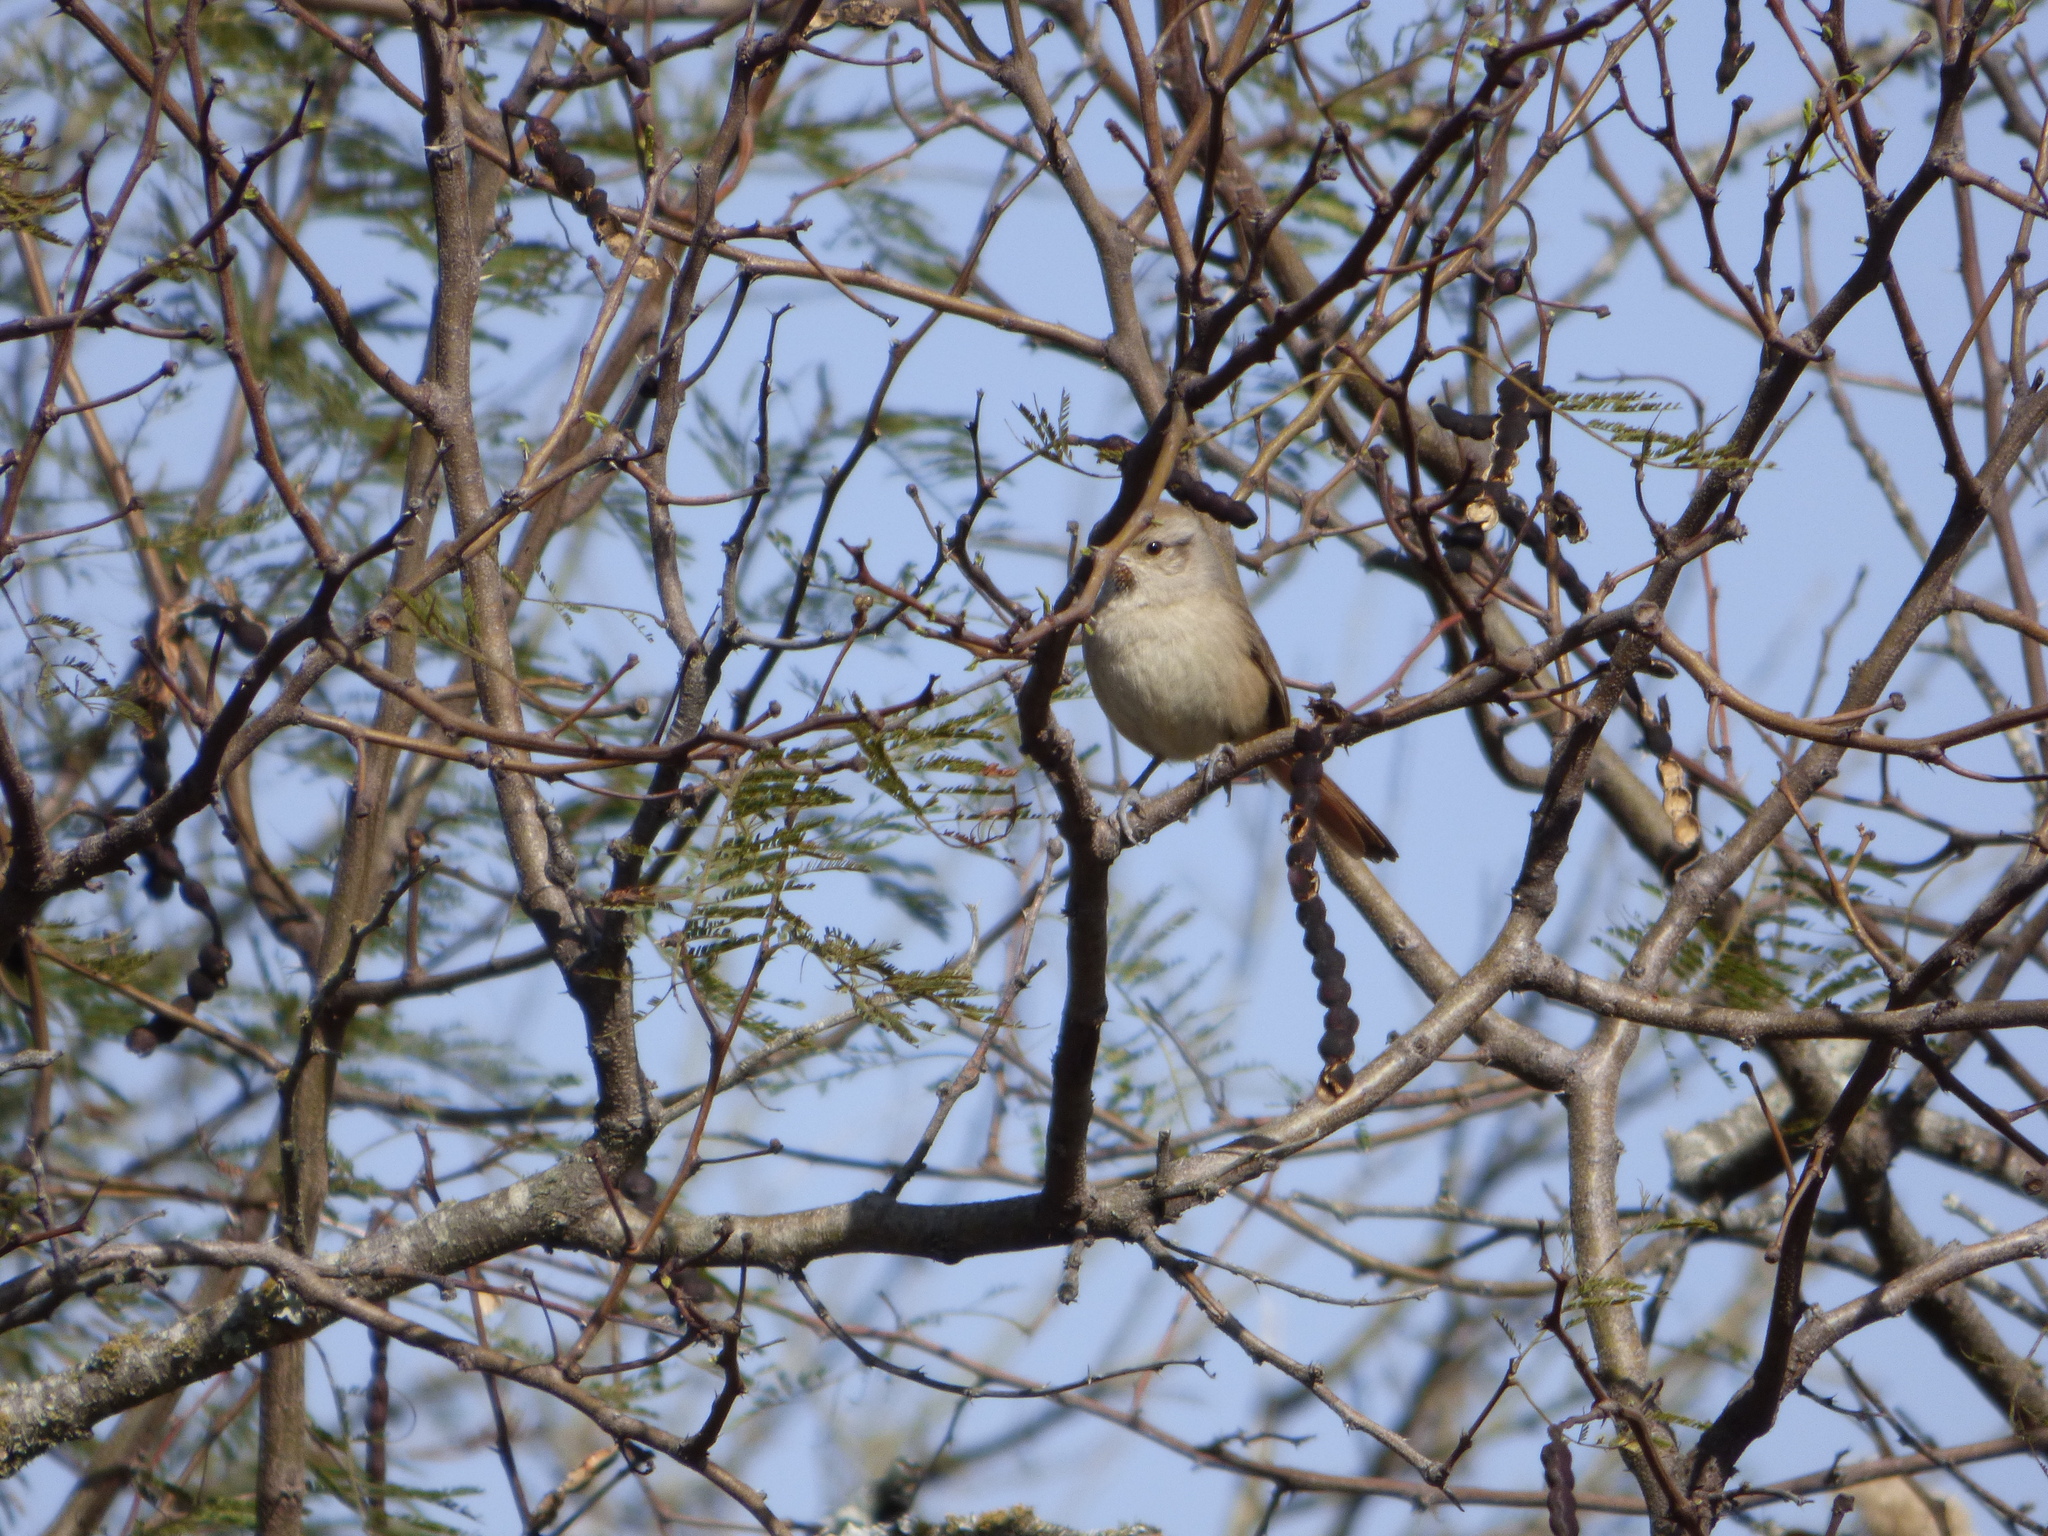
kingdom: Animalia
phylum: Chordata
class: Aves
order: Passeriformes
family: Furnariidae
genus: Asthenes
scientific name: Asthenes baeri
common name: Short-billed canastero
